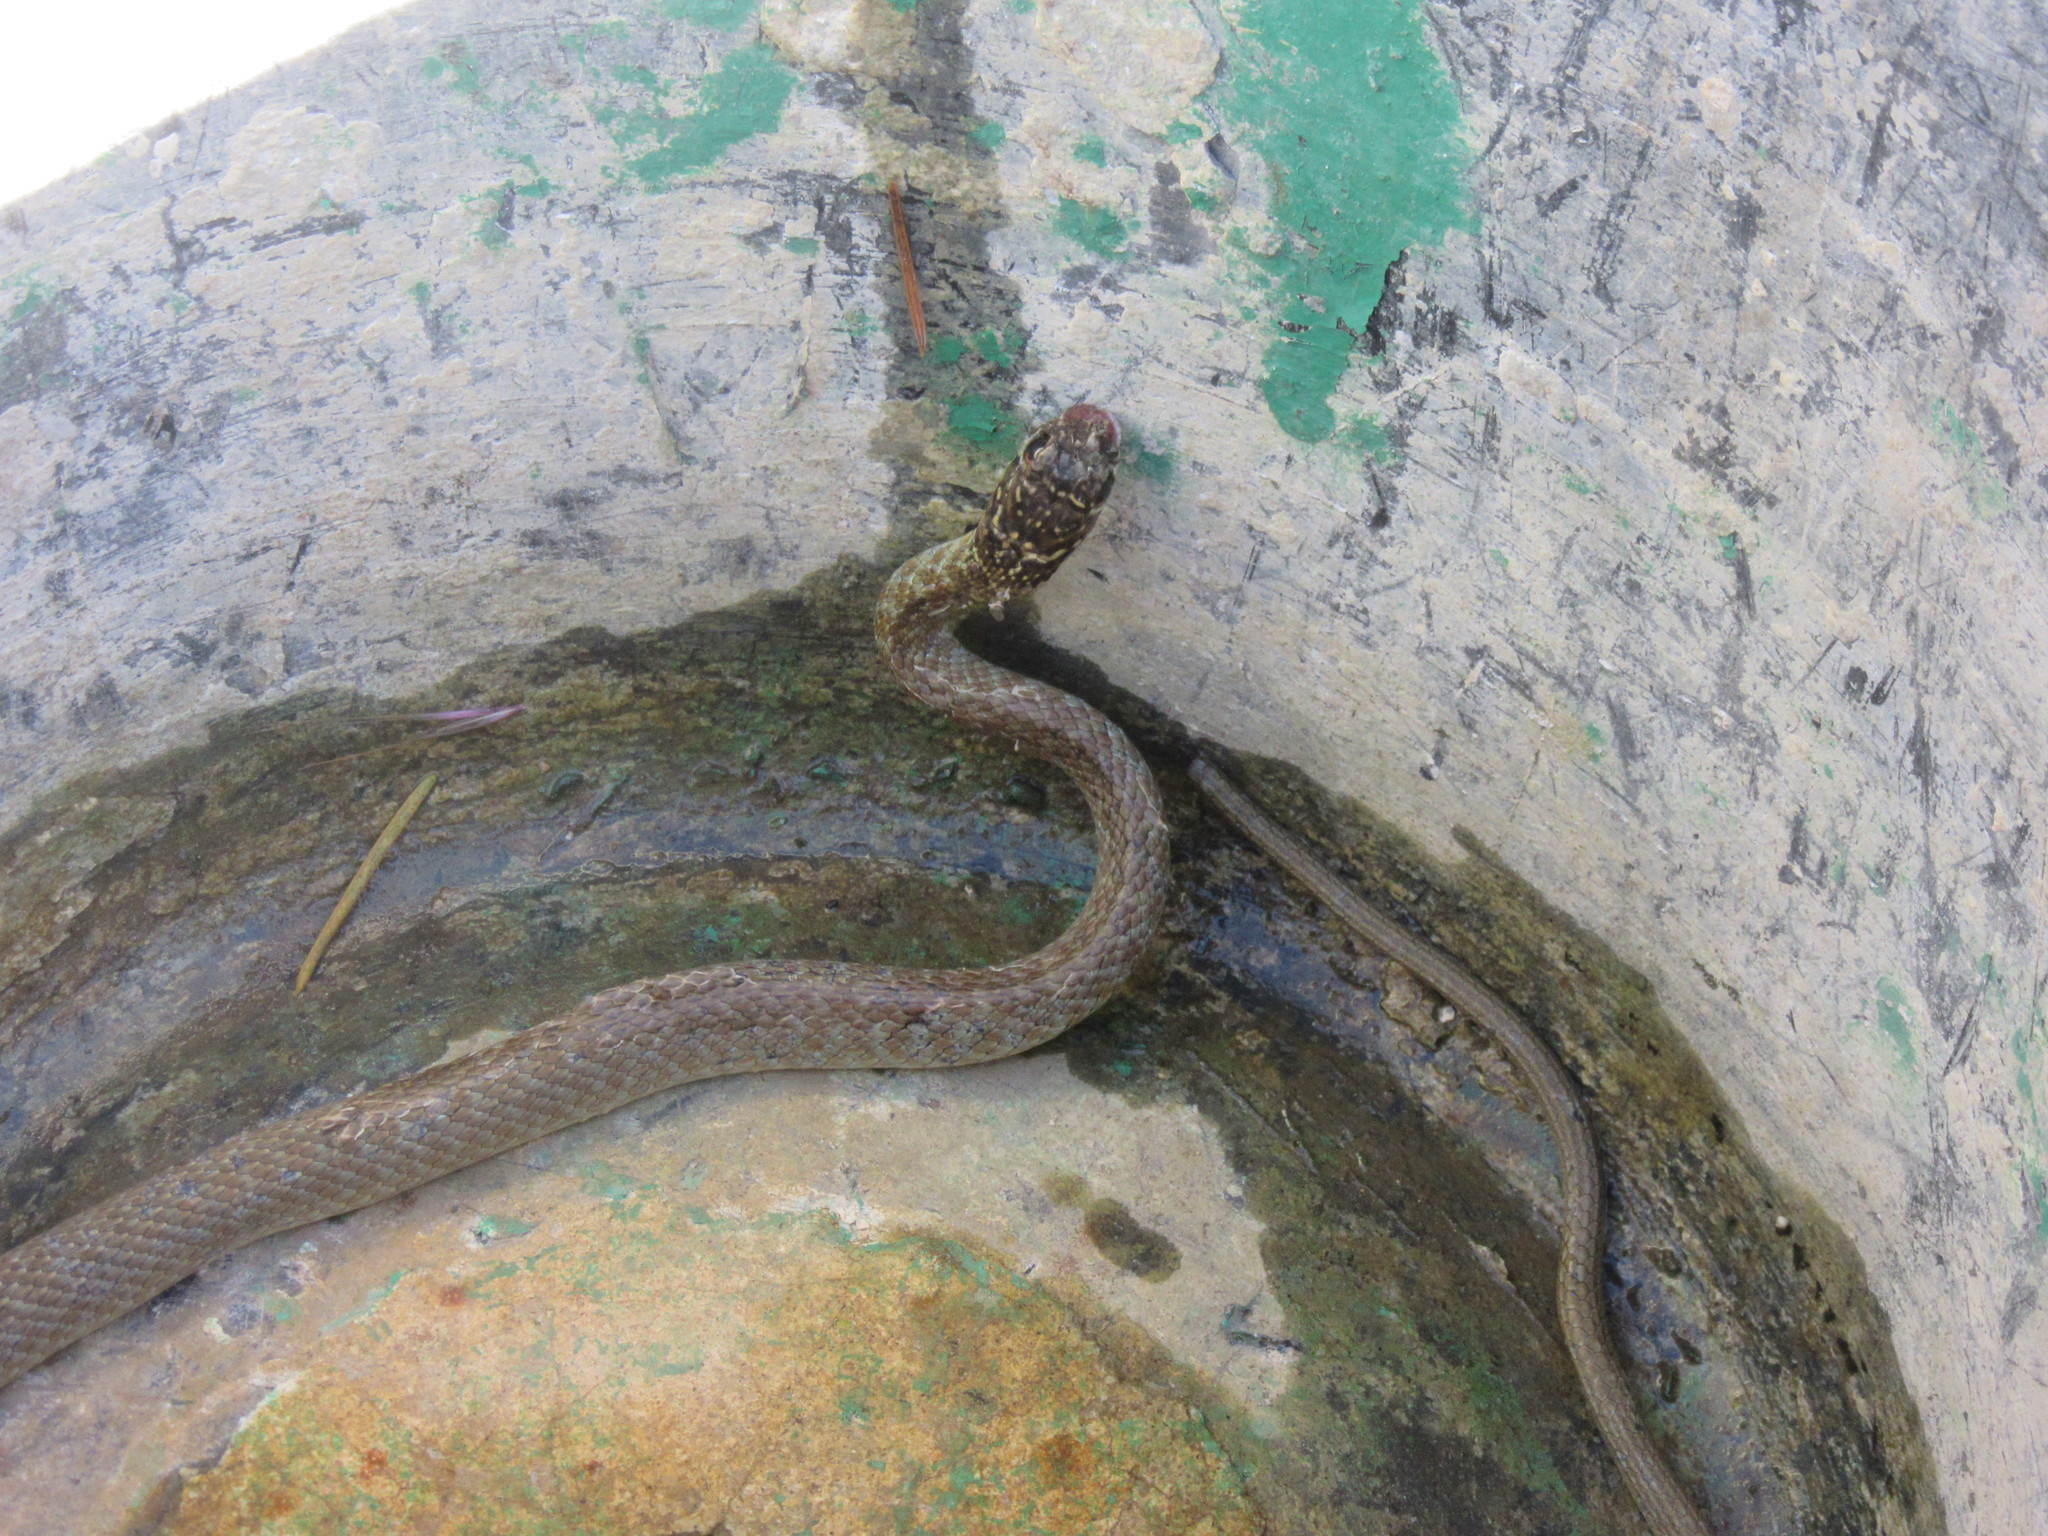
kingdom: Animalia
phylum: Chordata
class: Squamata
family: Colubridae
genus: Hierophis
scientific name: Hierophis viridiflavus
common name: Green whip snake
